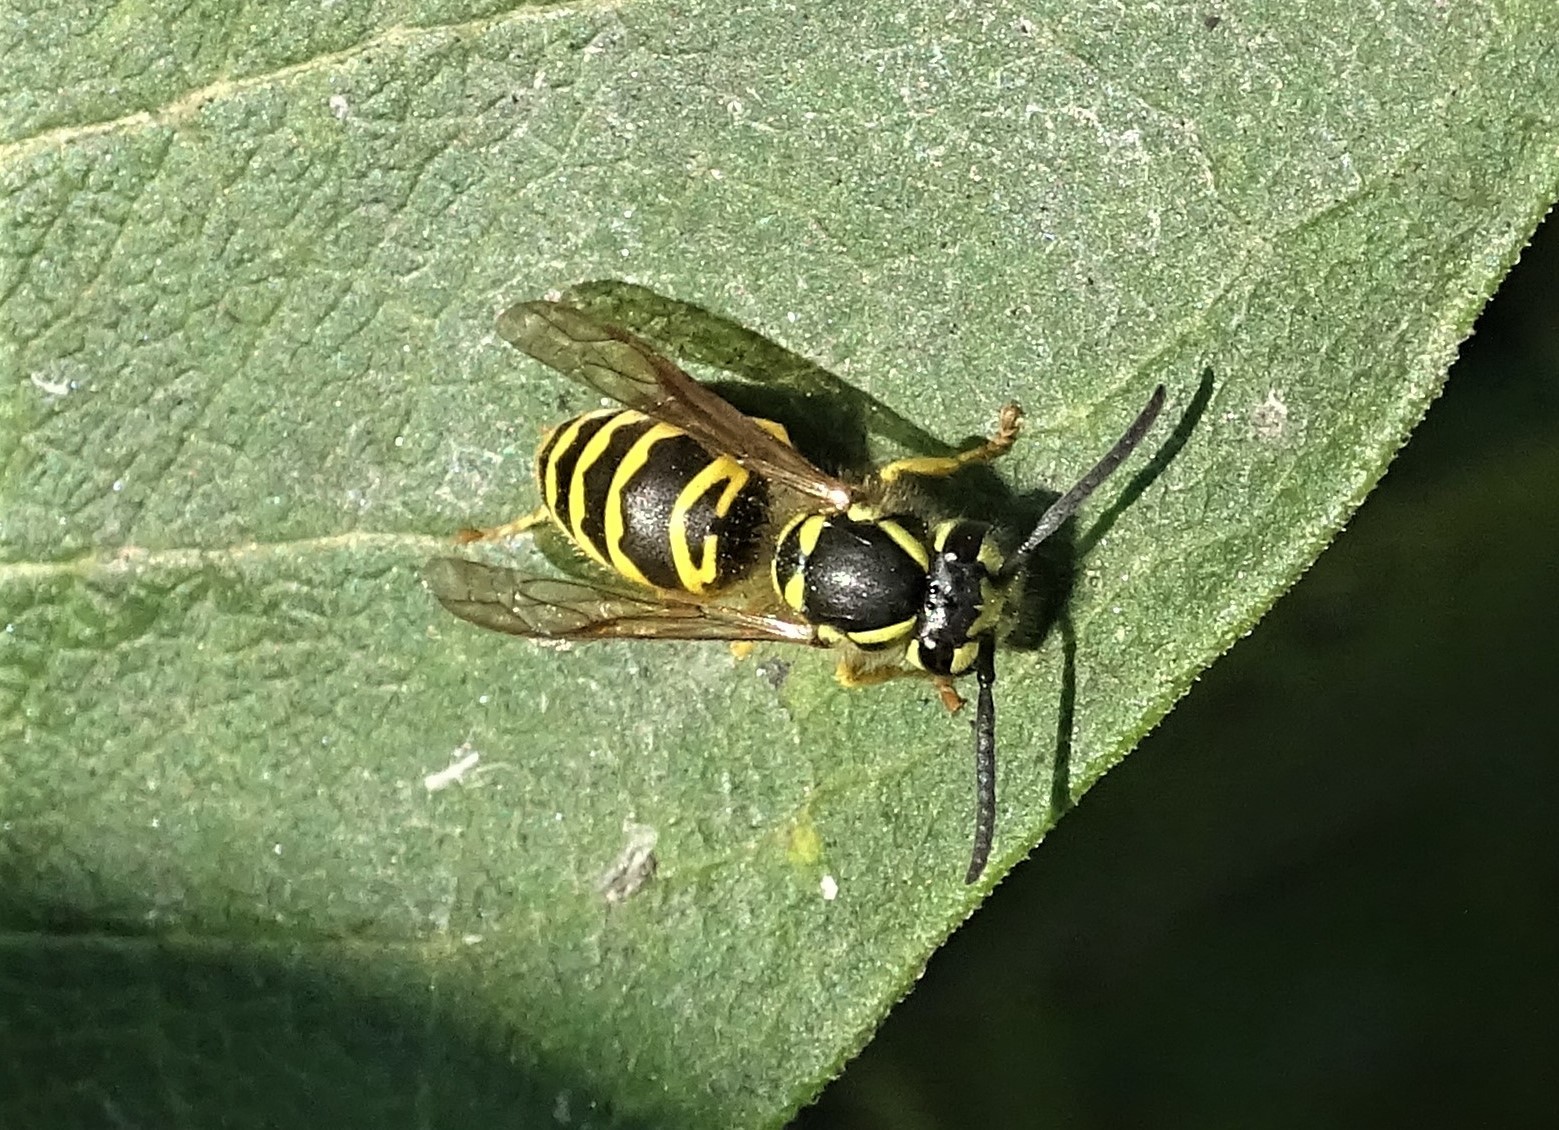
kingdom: Animalia
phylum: Arthropoda
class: Insecta
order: Hymenoptera
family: Vespidae
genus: Vespula
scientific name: Vespula maculifrons
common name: Eastern yellowjacket
